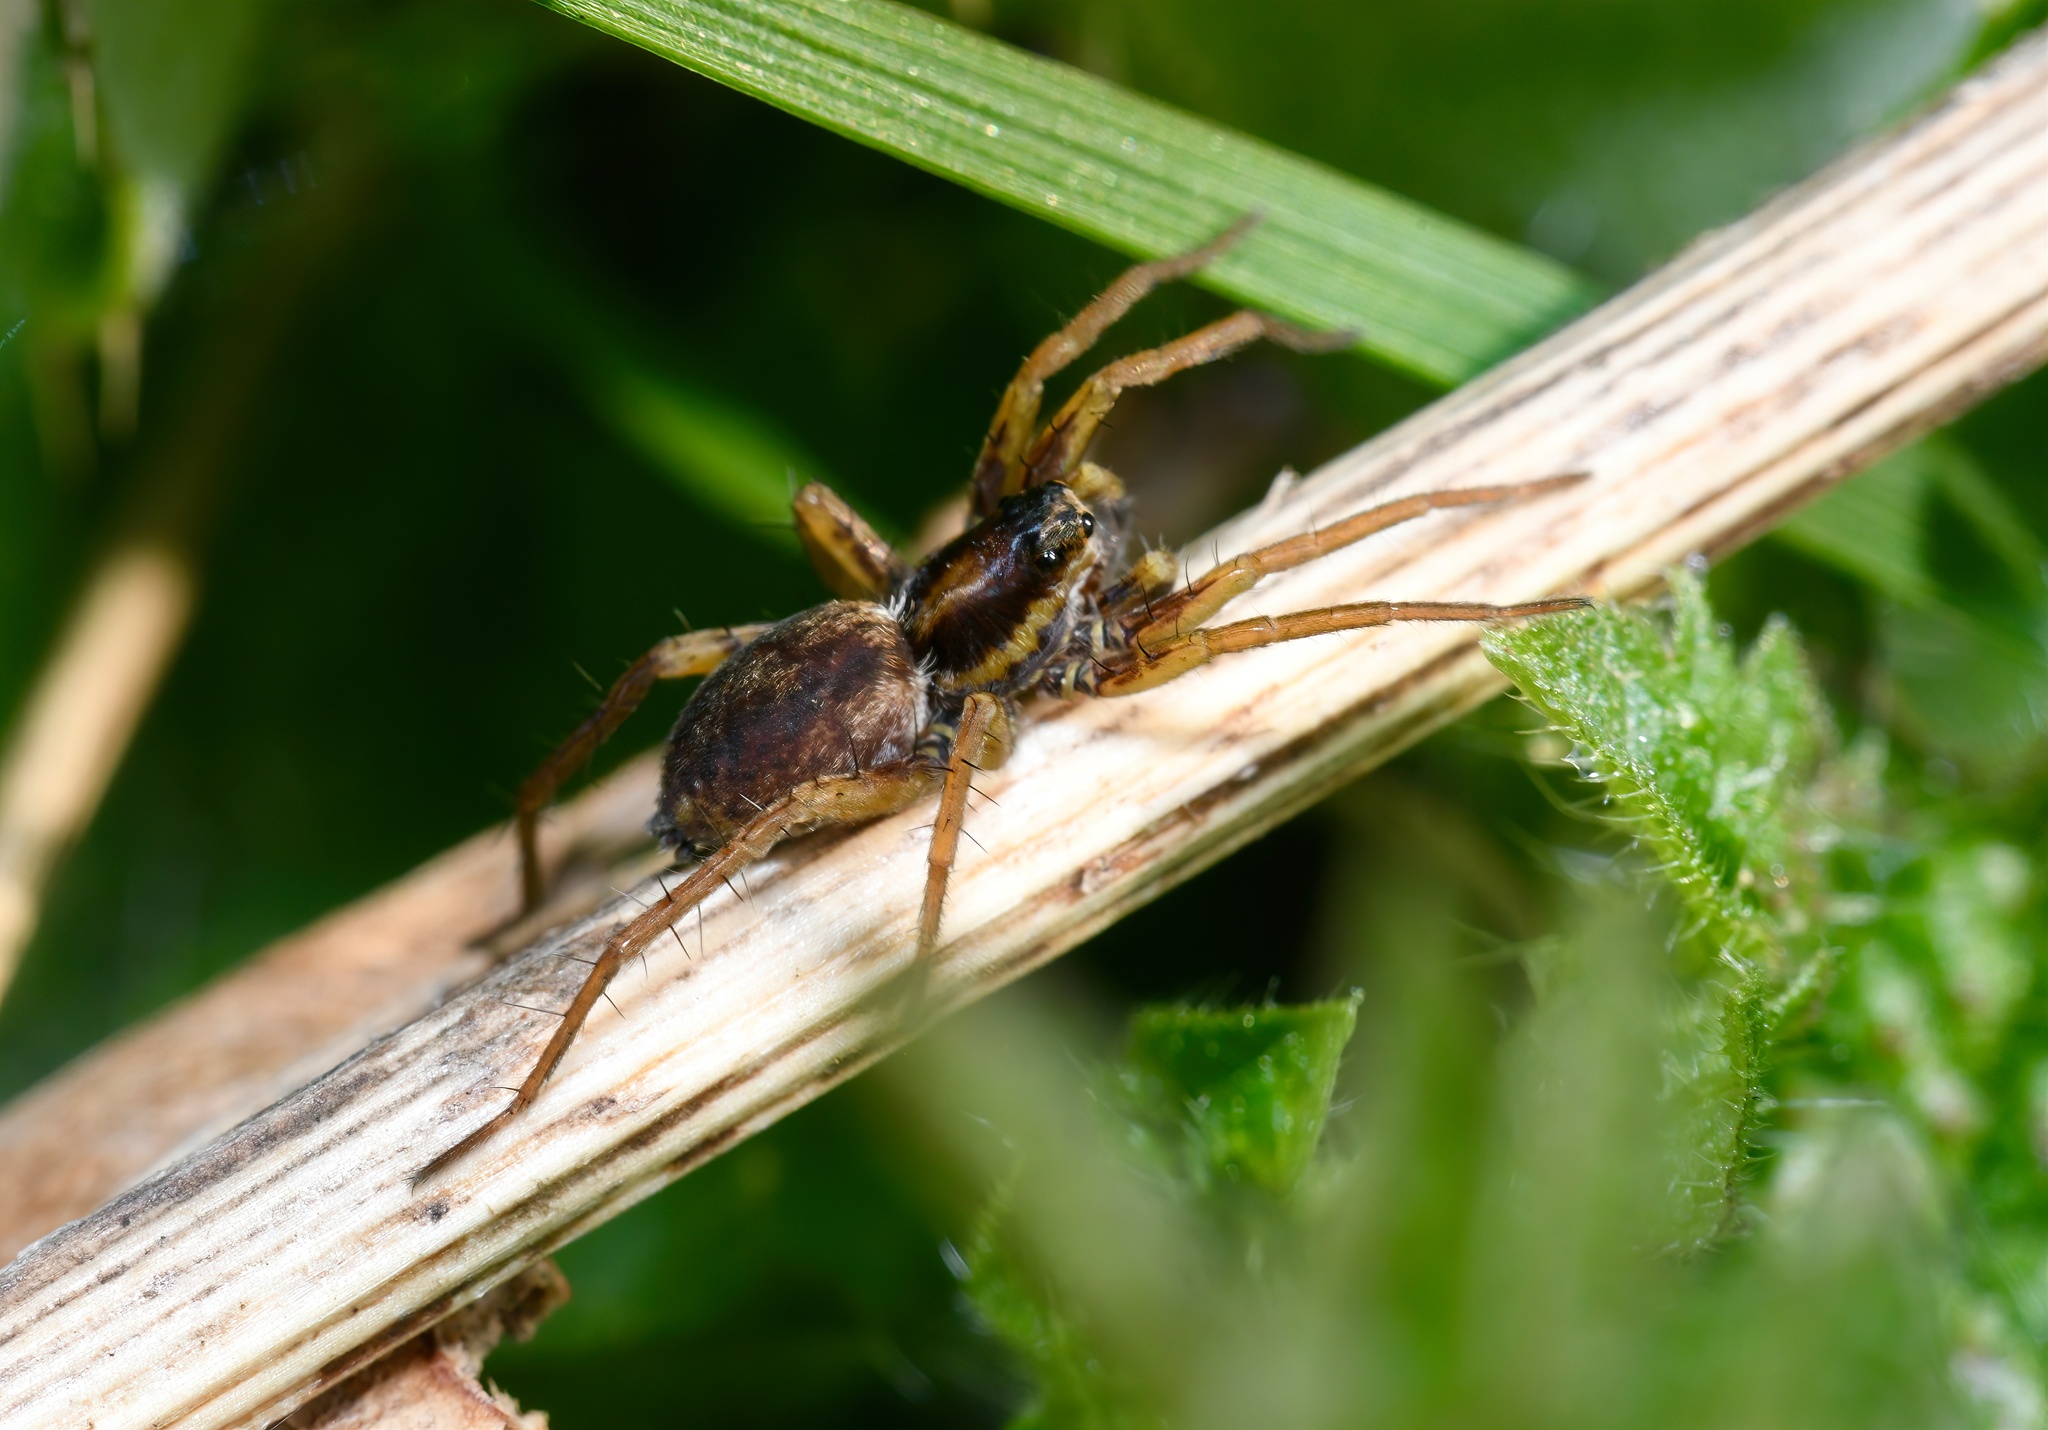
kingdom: Animalia
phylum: Arthropoda
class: Arachnida
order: Araneae
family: Lycosidae
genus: Pardosa
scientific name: Pardosa nigriceps
